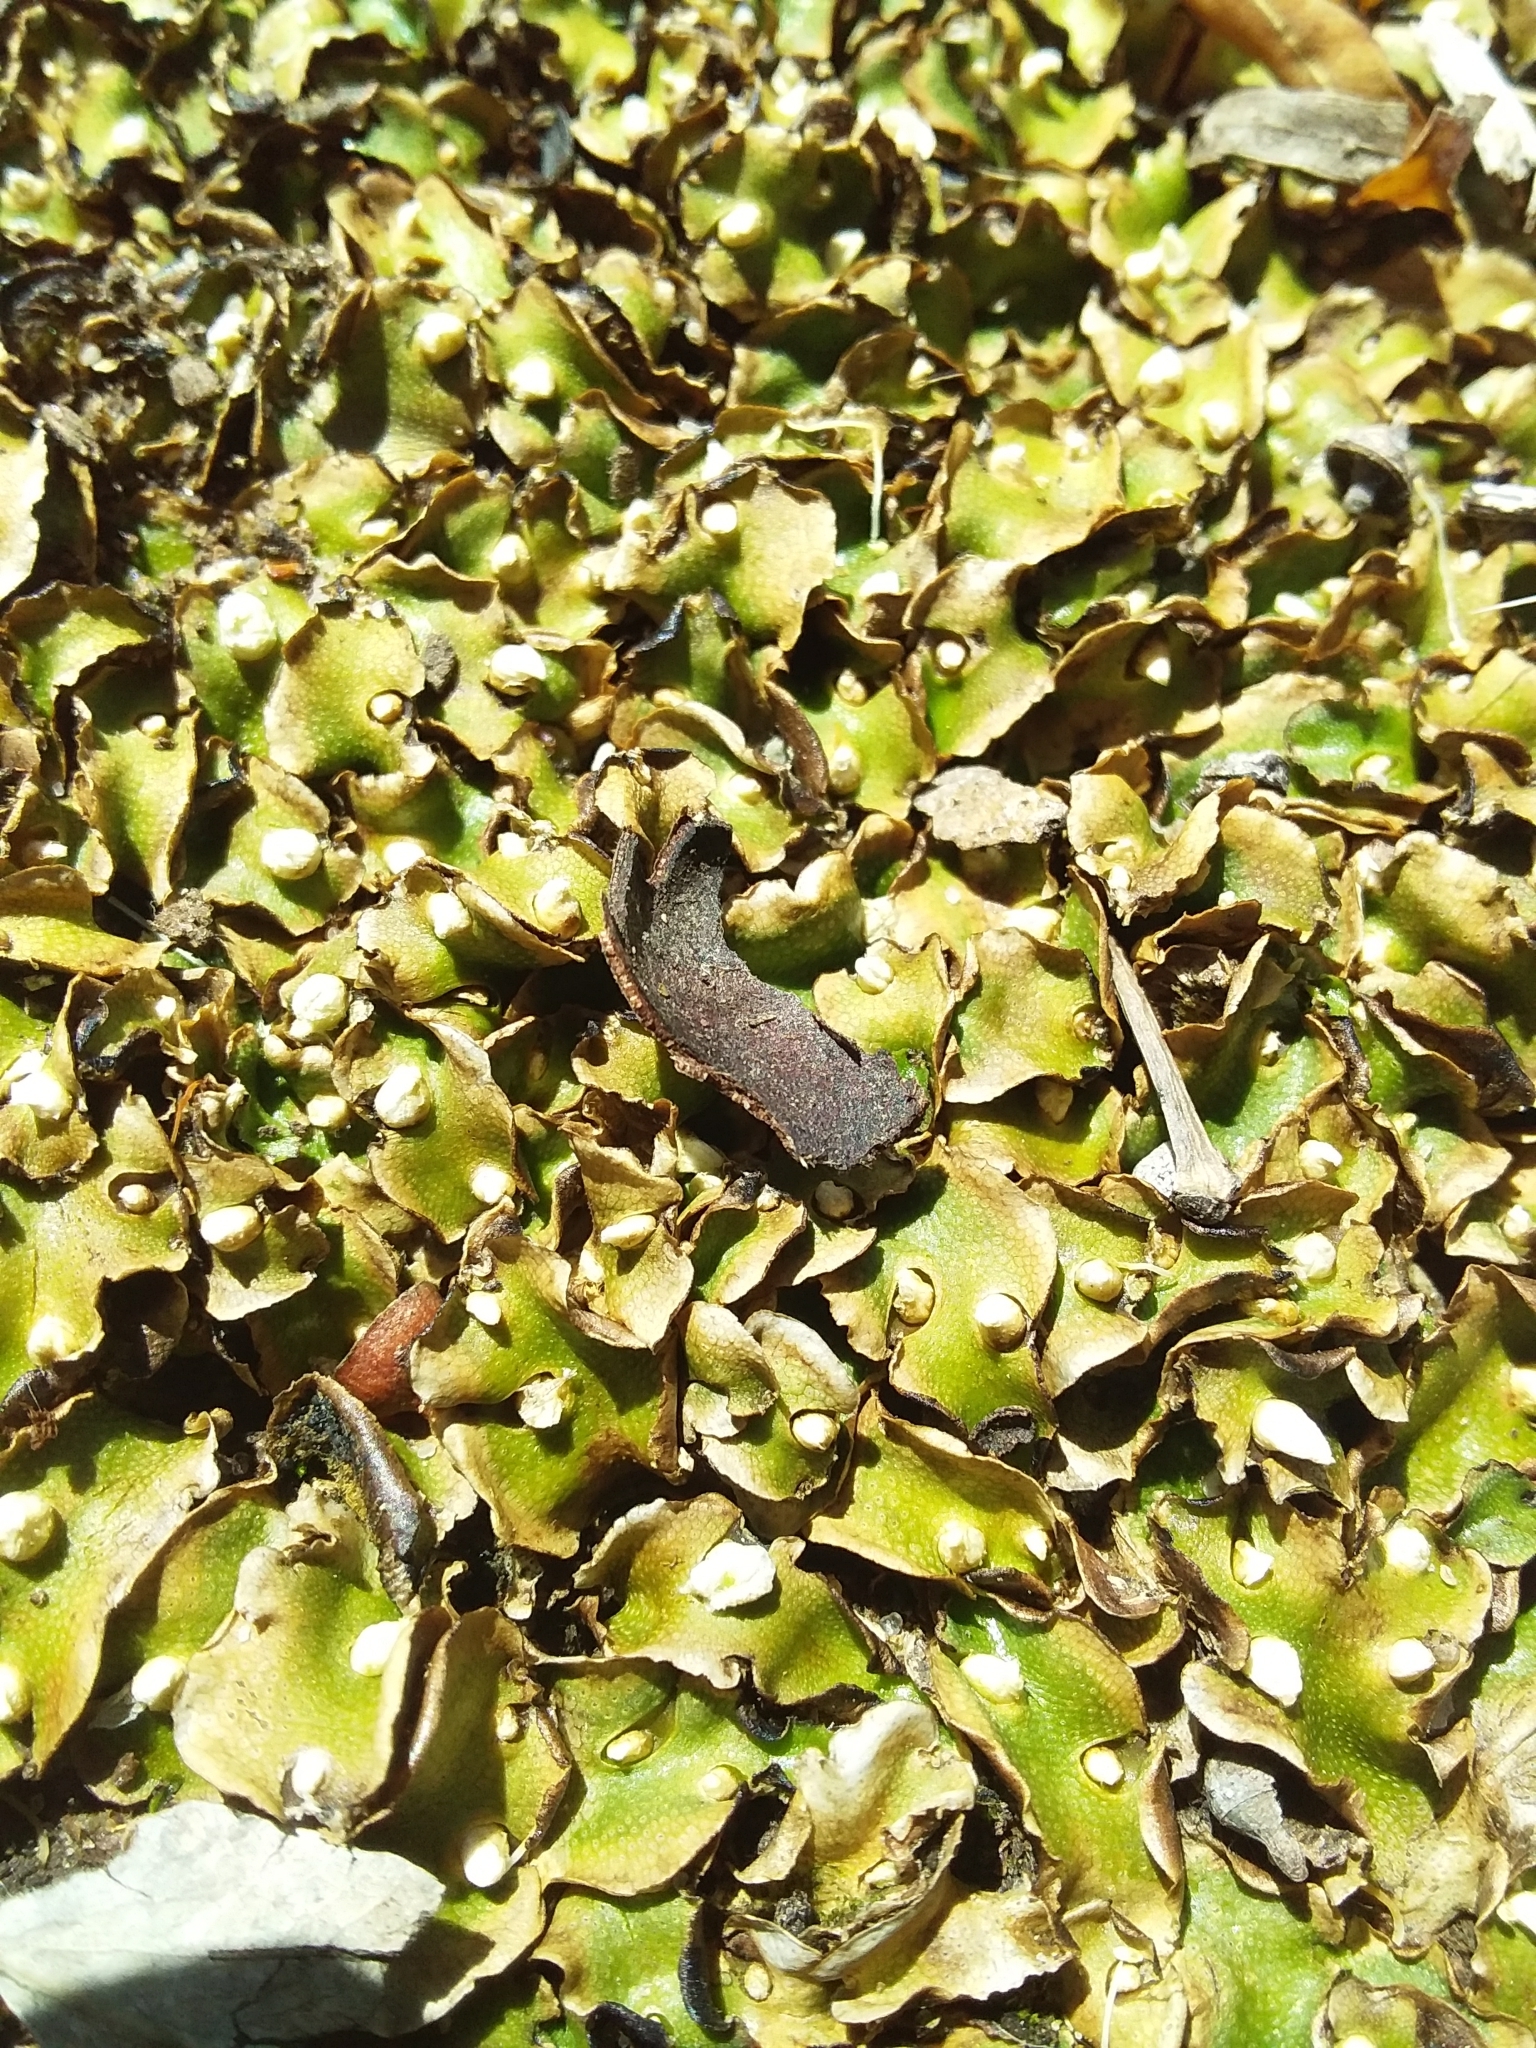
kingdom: Plantae
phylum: Marchantiophyta
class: Marchantiopsida
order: Lunulariales
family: Lunulariaceae
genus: Lunularia
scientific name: Lunularia cruciata
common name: Crescent-cup liverwort
